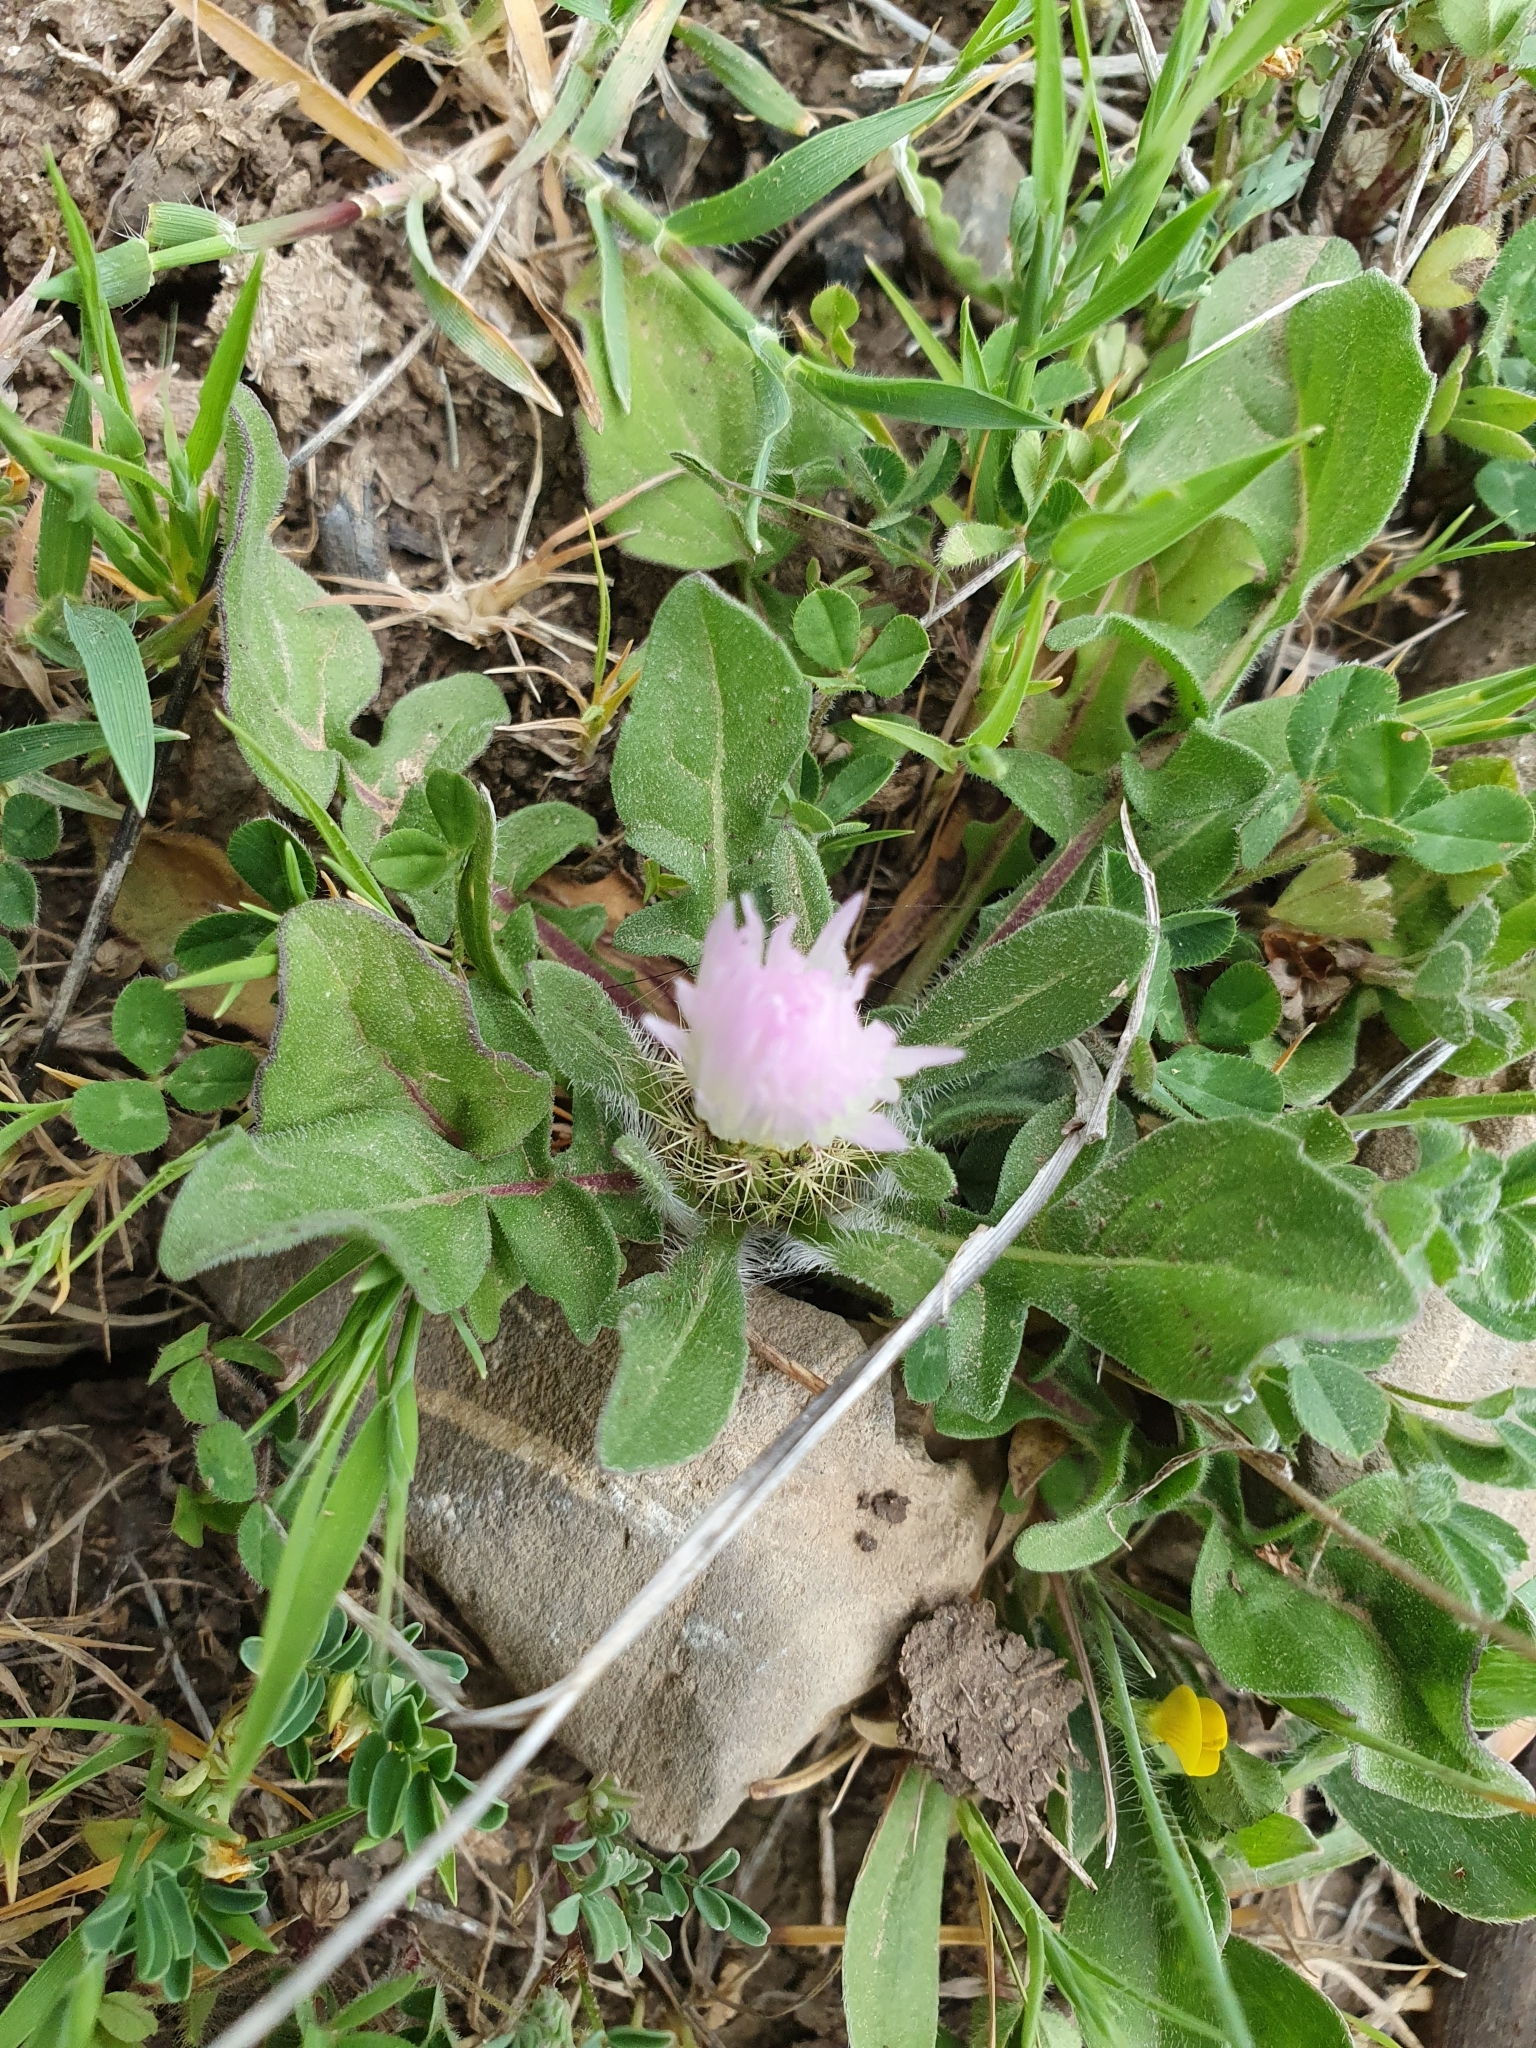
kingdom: Plantae
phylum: Tracheophyta
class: Magnoliopsida
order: Asterales
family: Asteraceae
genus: Centaurea
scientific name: Centaurea pullata
